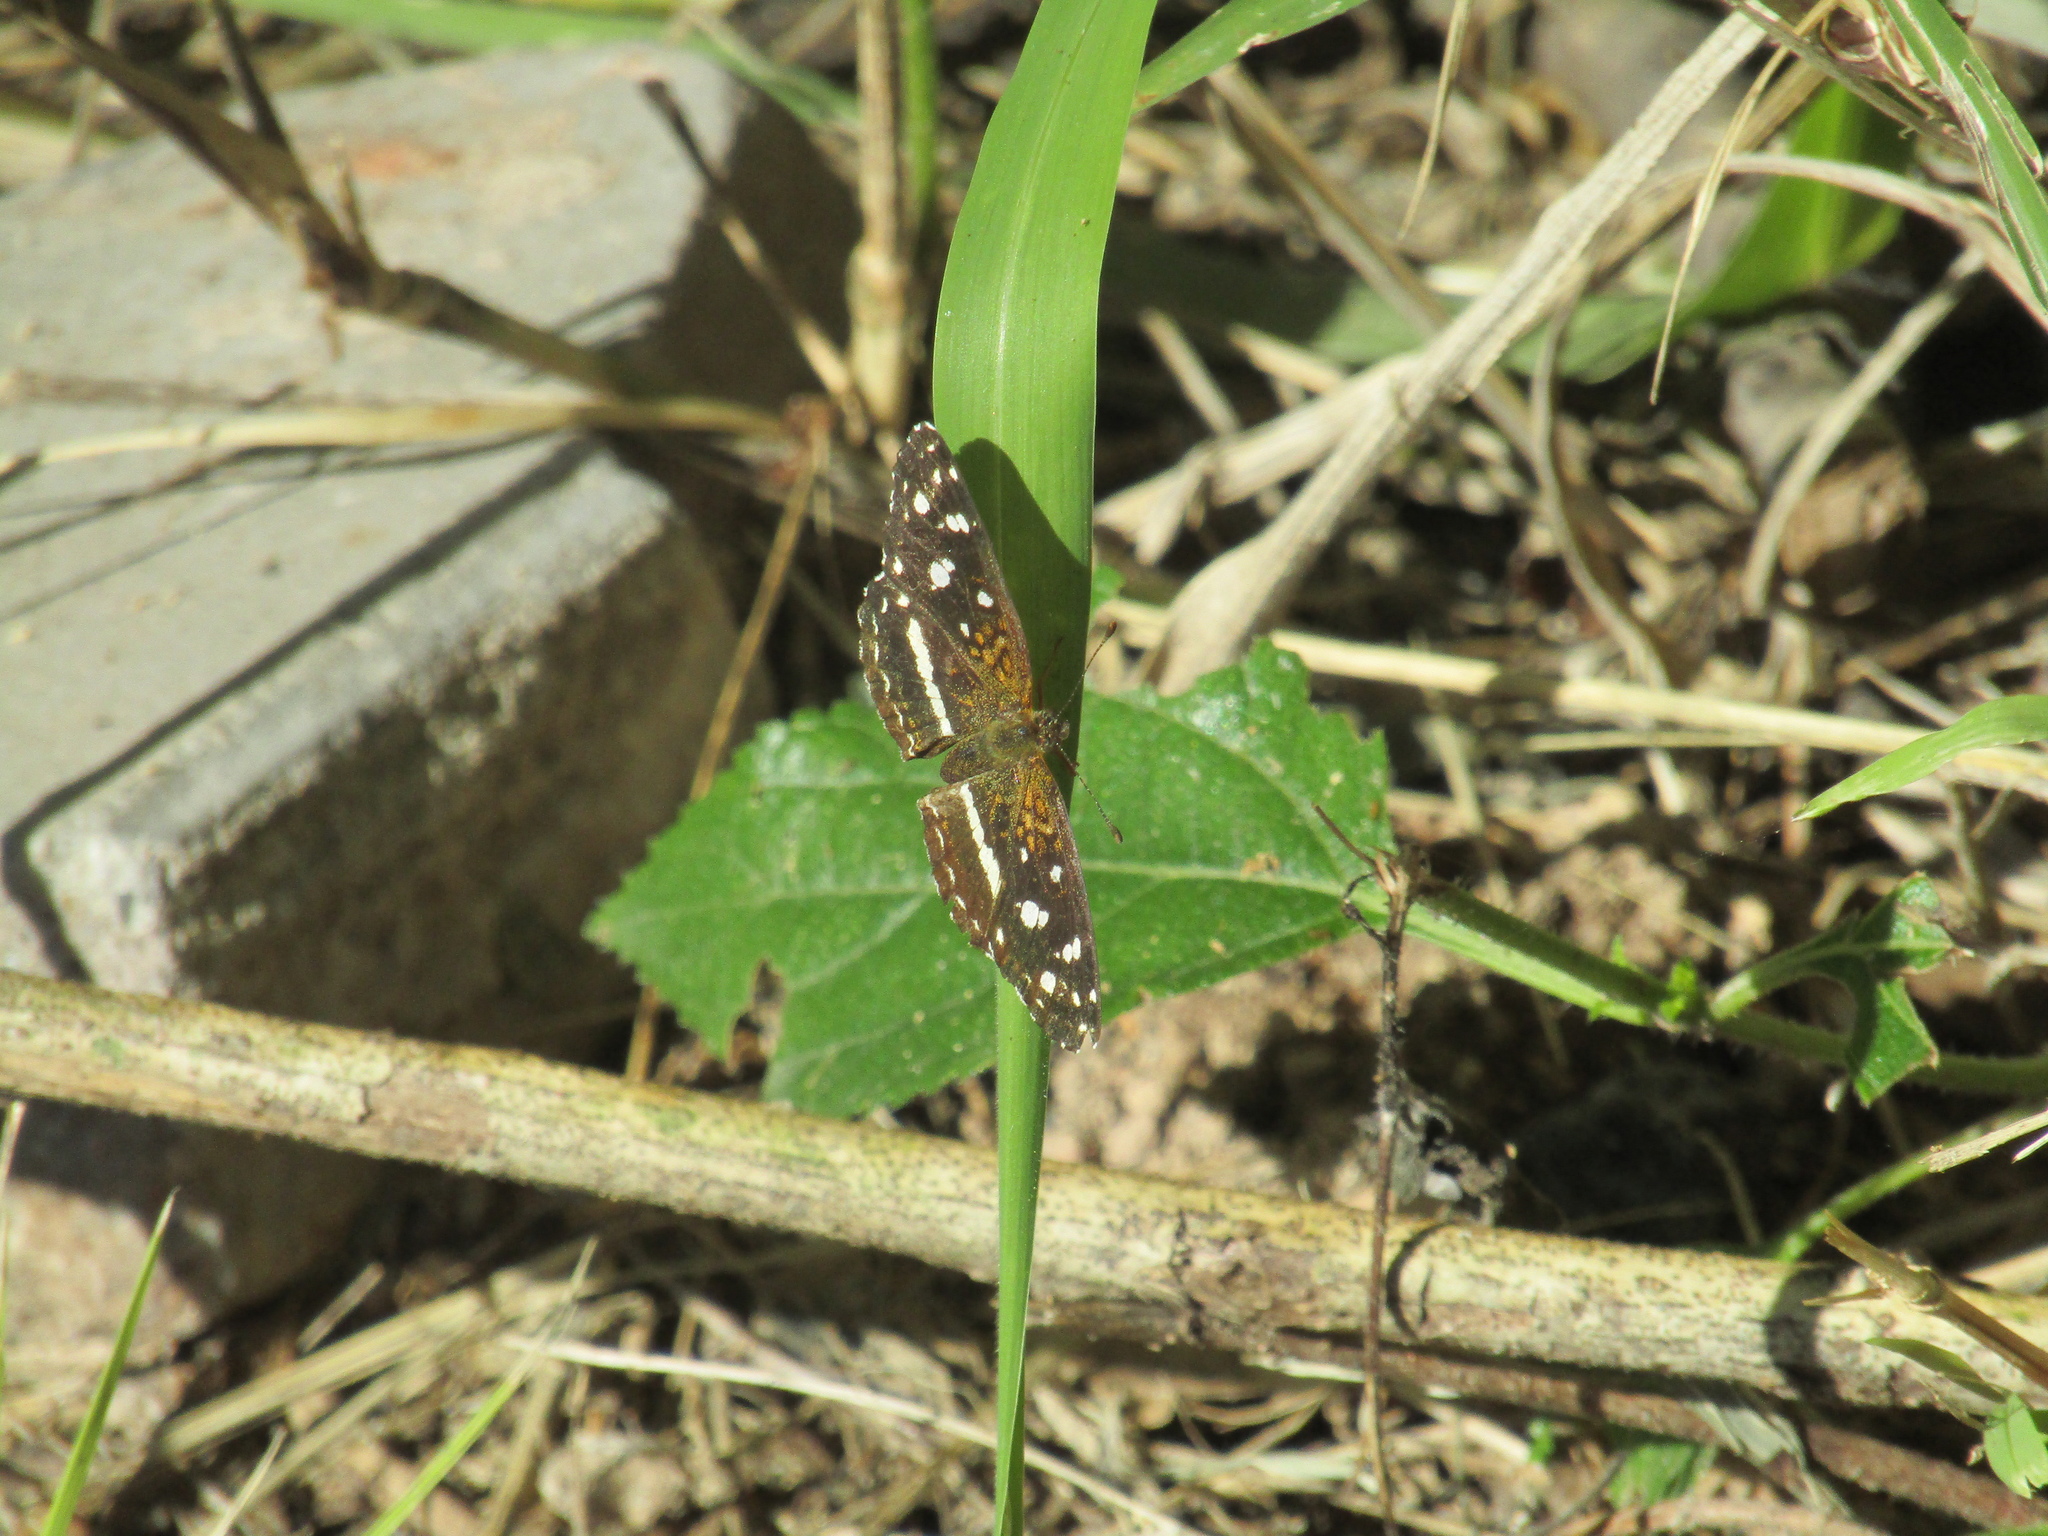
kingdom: Animalia
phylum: Arthropoda
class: Insecta
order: Lepidoptera
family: Nymphalidae
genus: Ortilia
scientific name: Ortilia ithra
